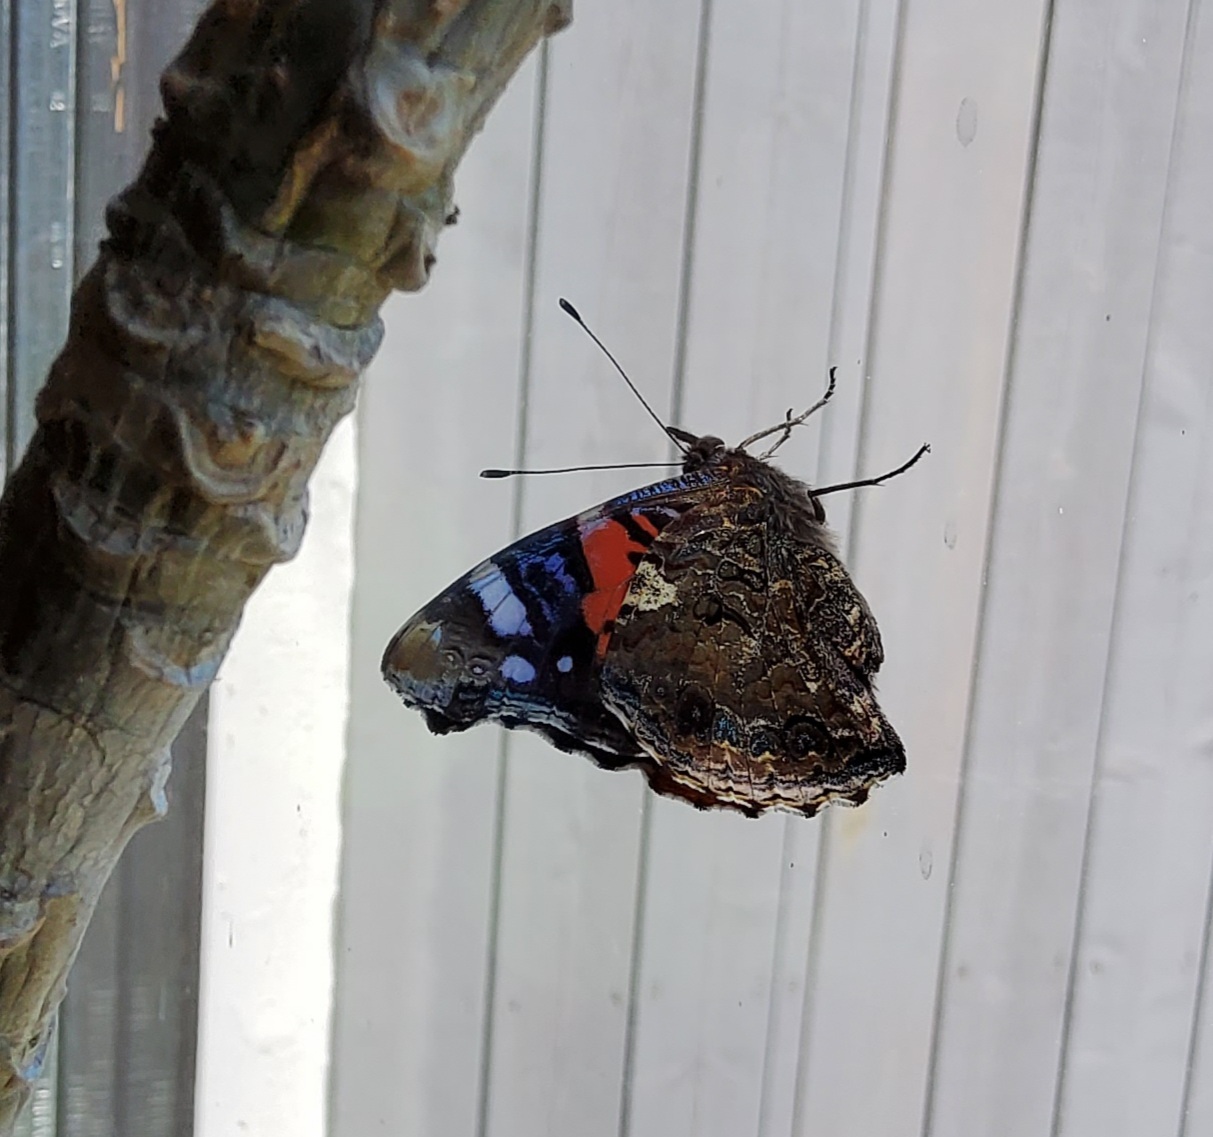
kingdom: Animalia
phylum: Arthropoda
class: Insecta
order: Lepidoptera
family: Nymphalidae
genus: Vanessa
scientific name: Vanessa atalanta
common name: Red admiral
